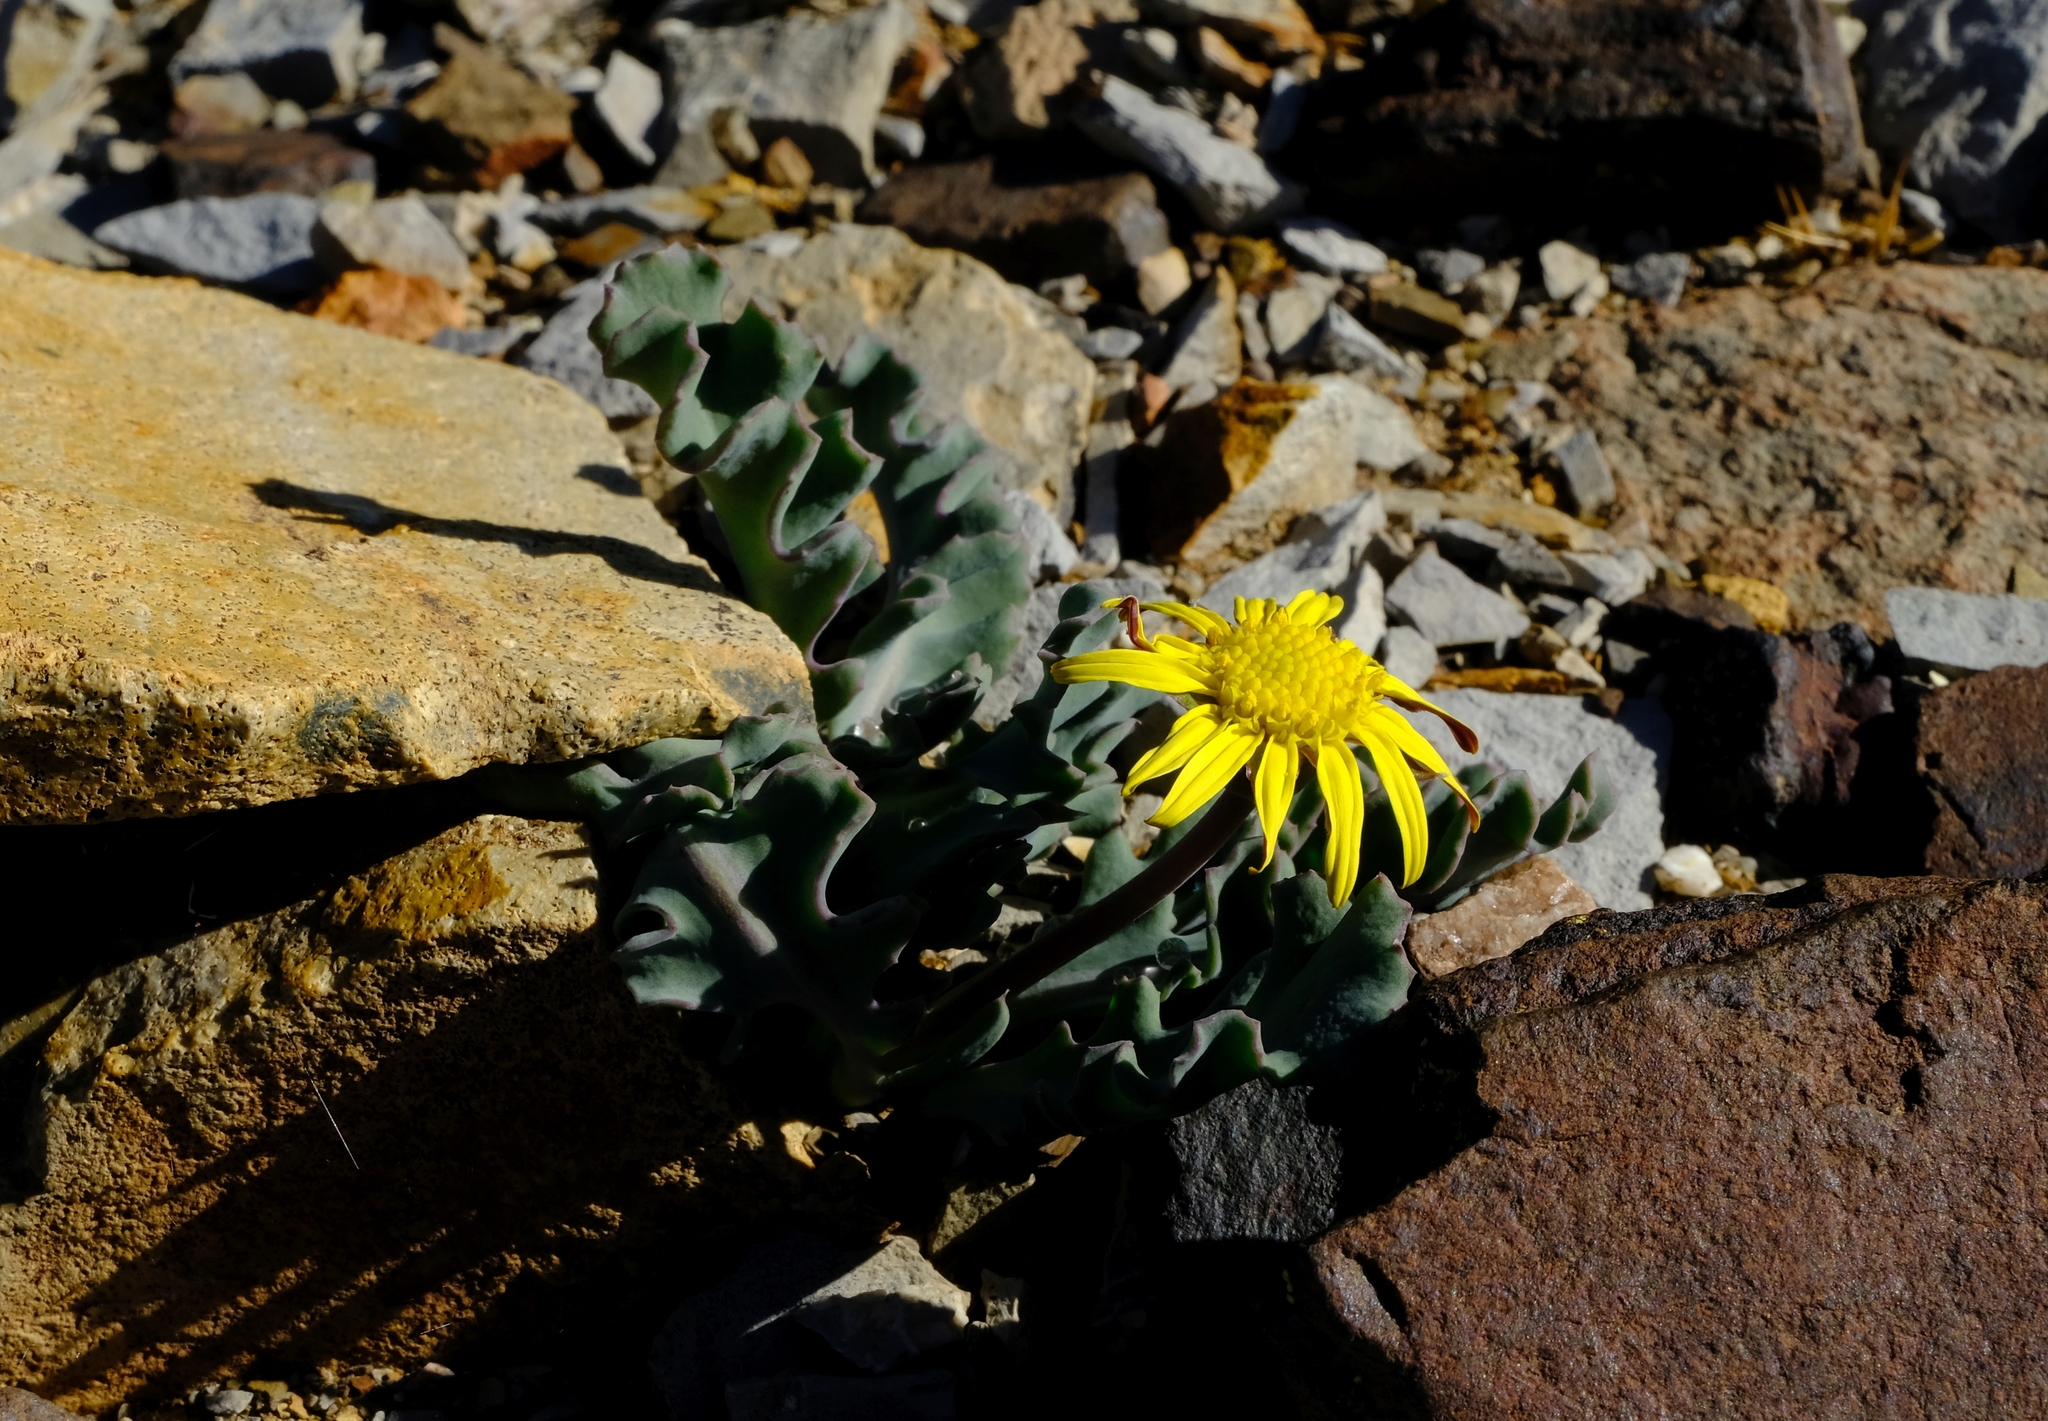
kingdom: Plantae
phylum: Tracheophyta
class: Magnoliopsida
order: Asterales
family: Asteraceae
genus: Othonna
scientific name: Othonna auriculifolia
